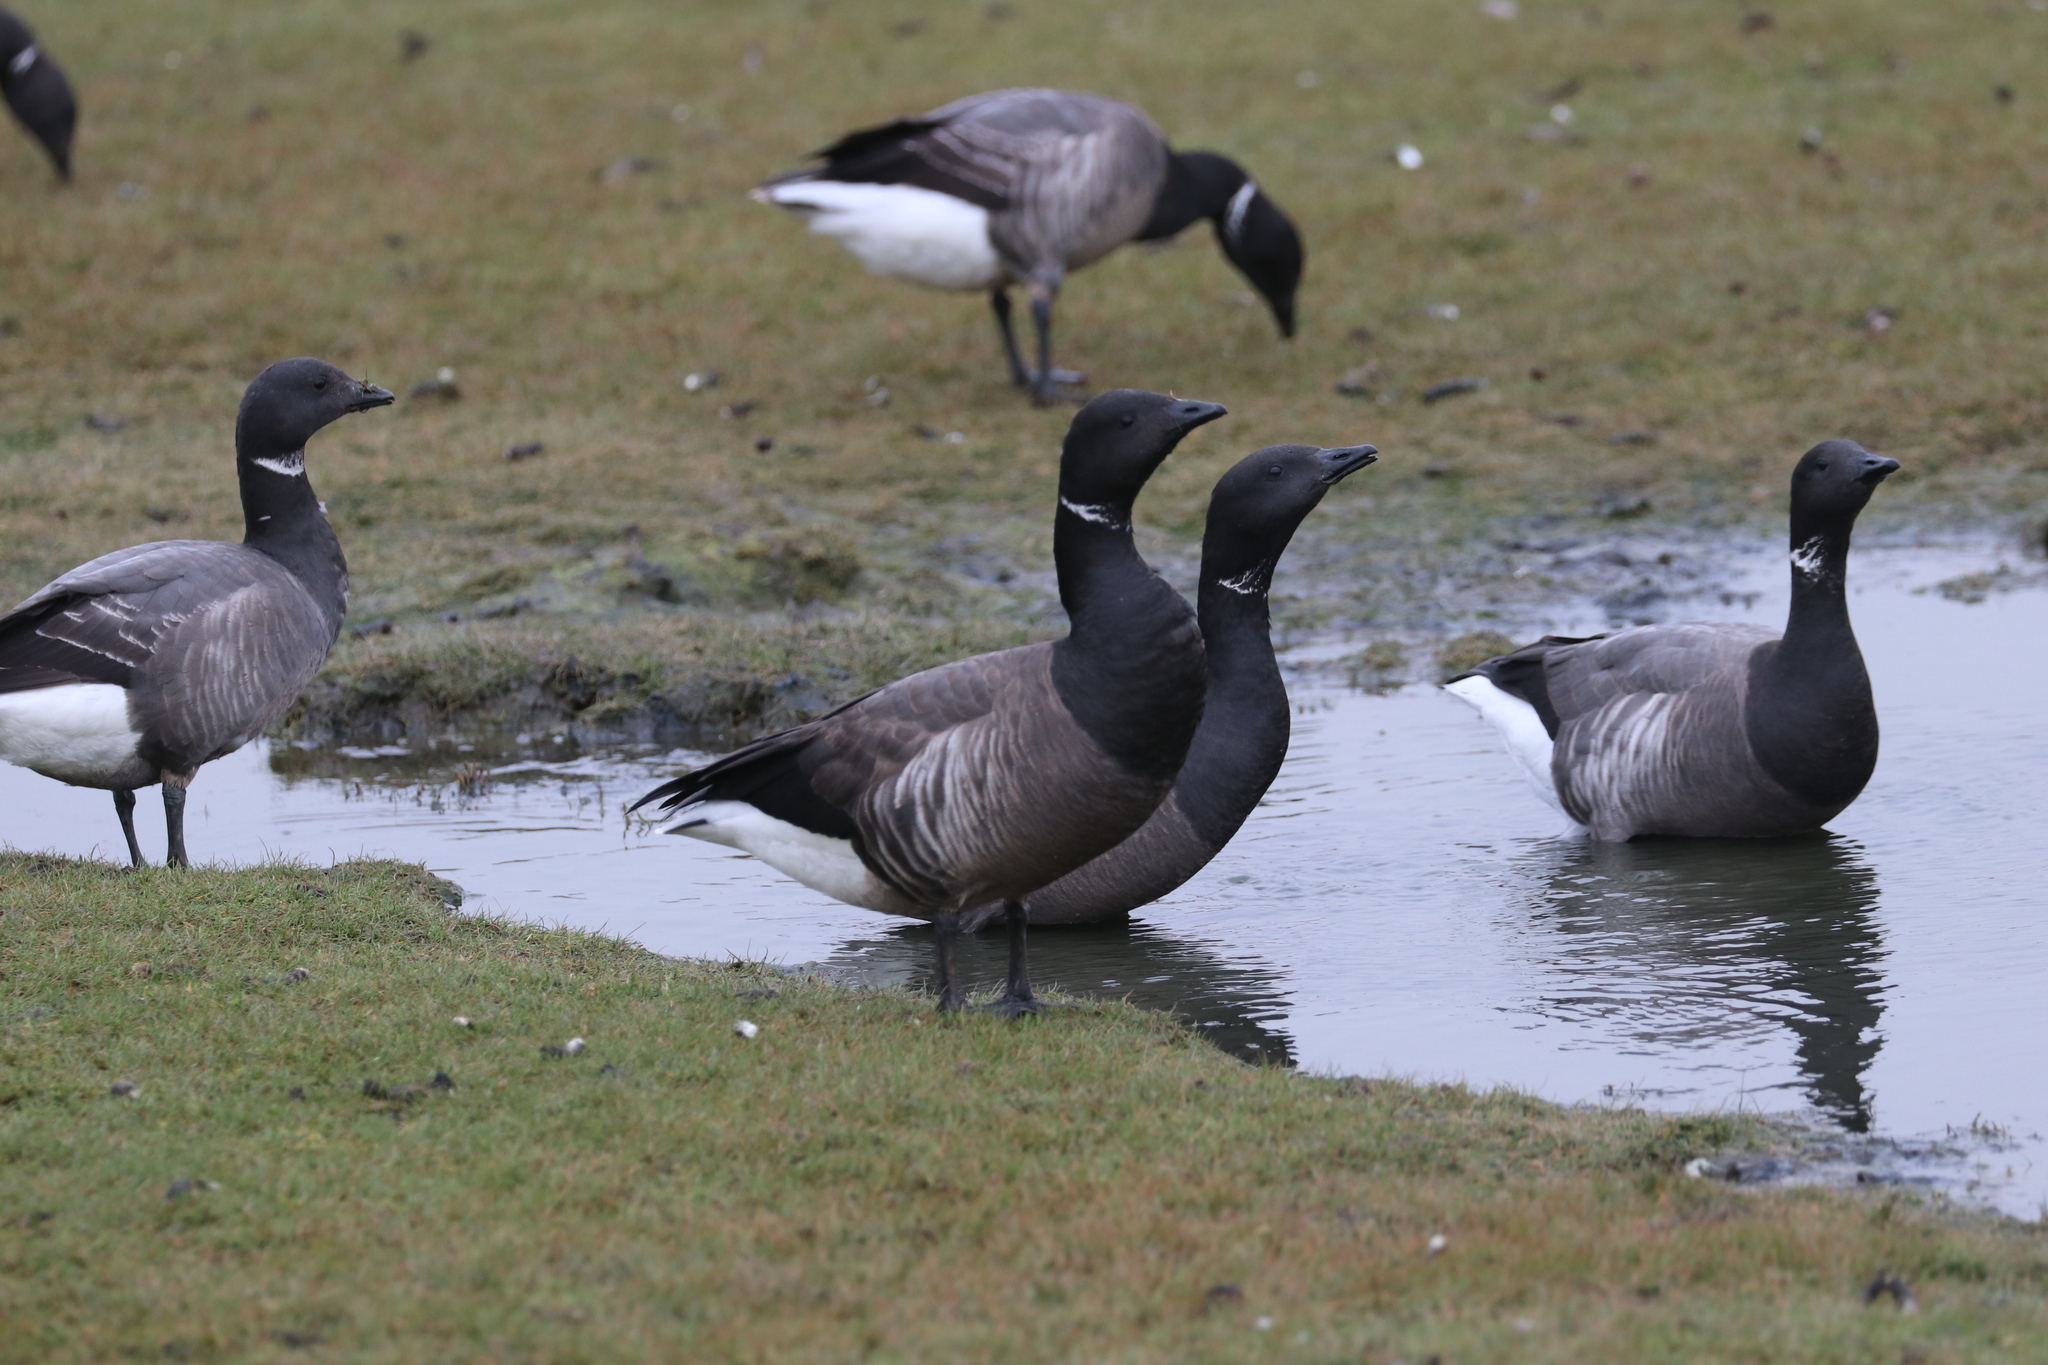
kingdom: Animalia
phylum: Chordata
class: Aves
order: Anseriformes
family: Anatidae
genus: Branta
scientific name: Branta bernicla
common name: Brant goose
